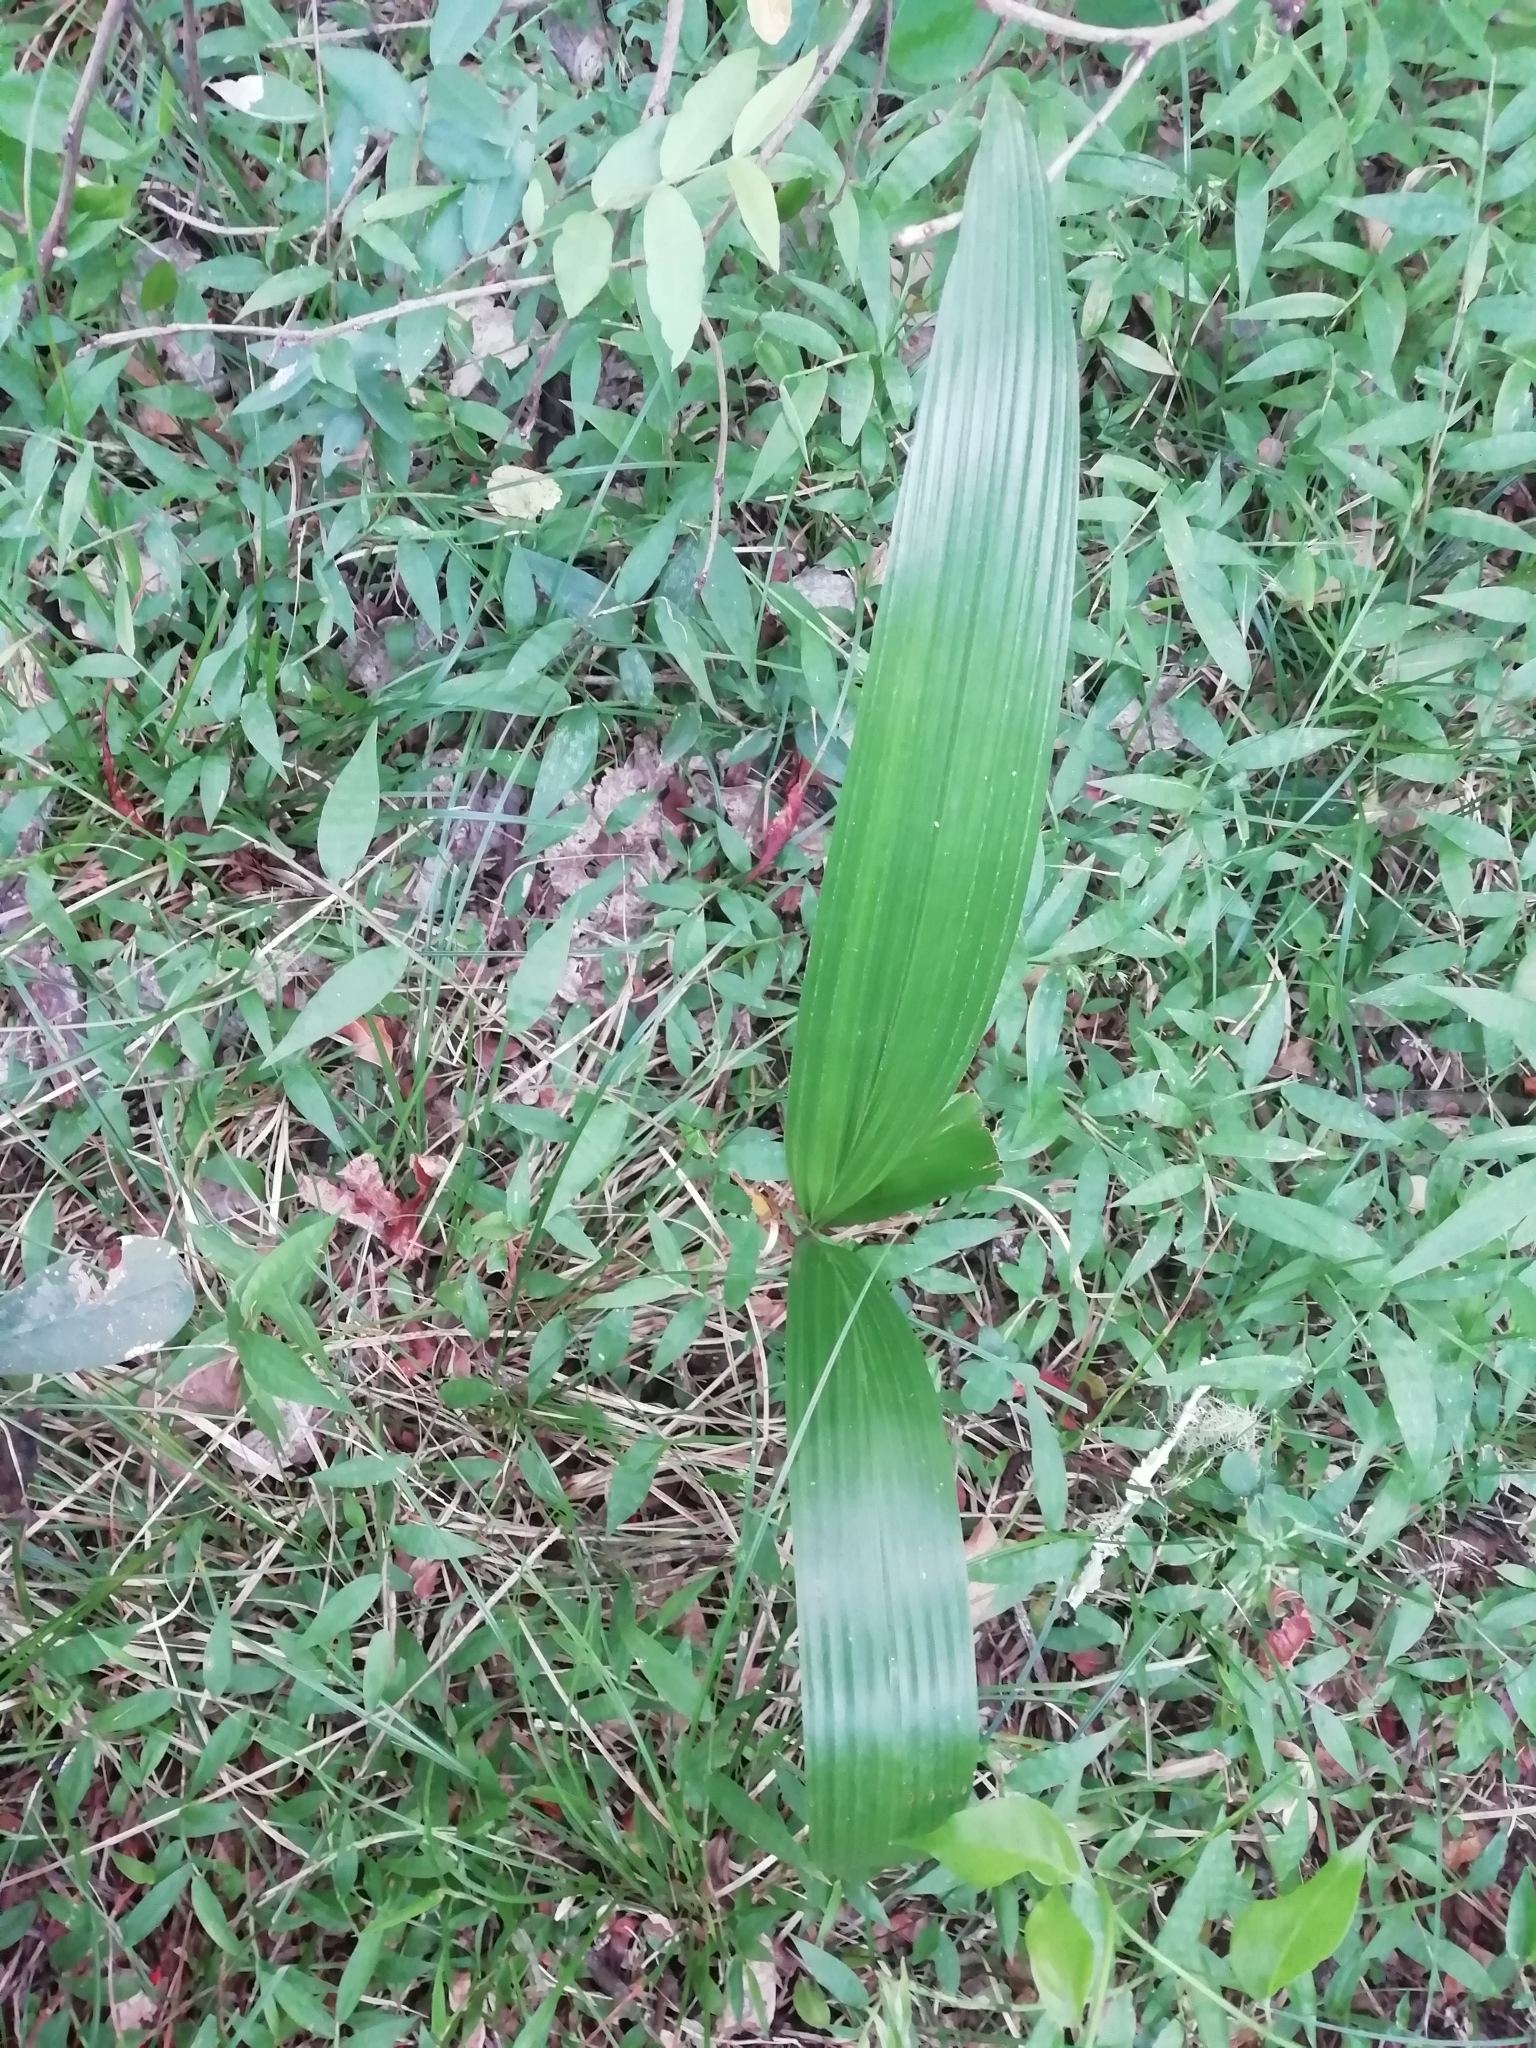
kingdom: Plantae
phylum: Tracheophyta
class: Liliopsida
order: Arecales
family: Arecaceae
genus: Syagrus
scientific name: Syagrus romanzoffiana
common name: Queen palm
